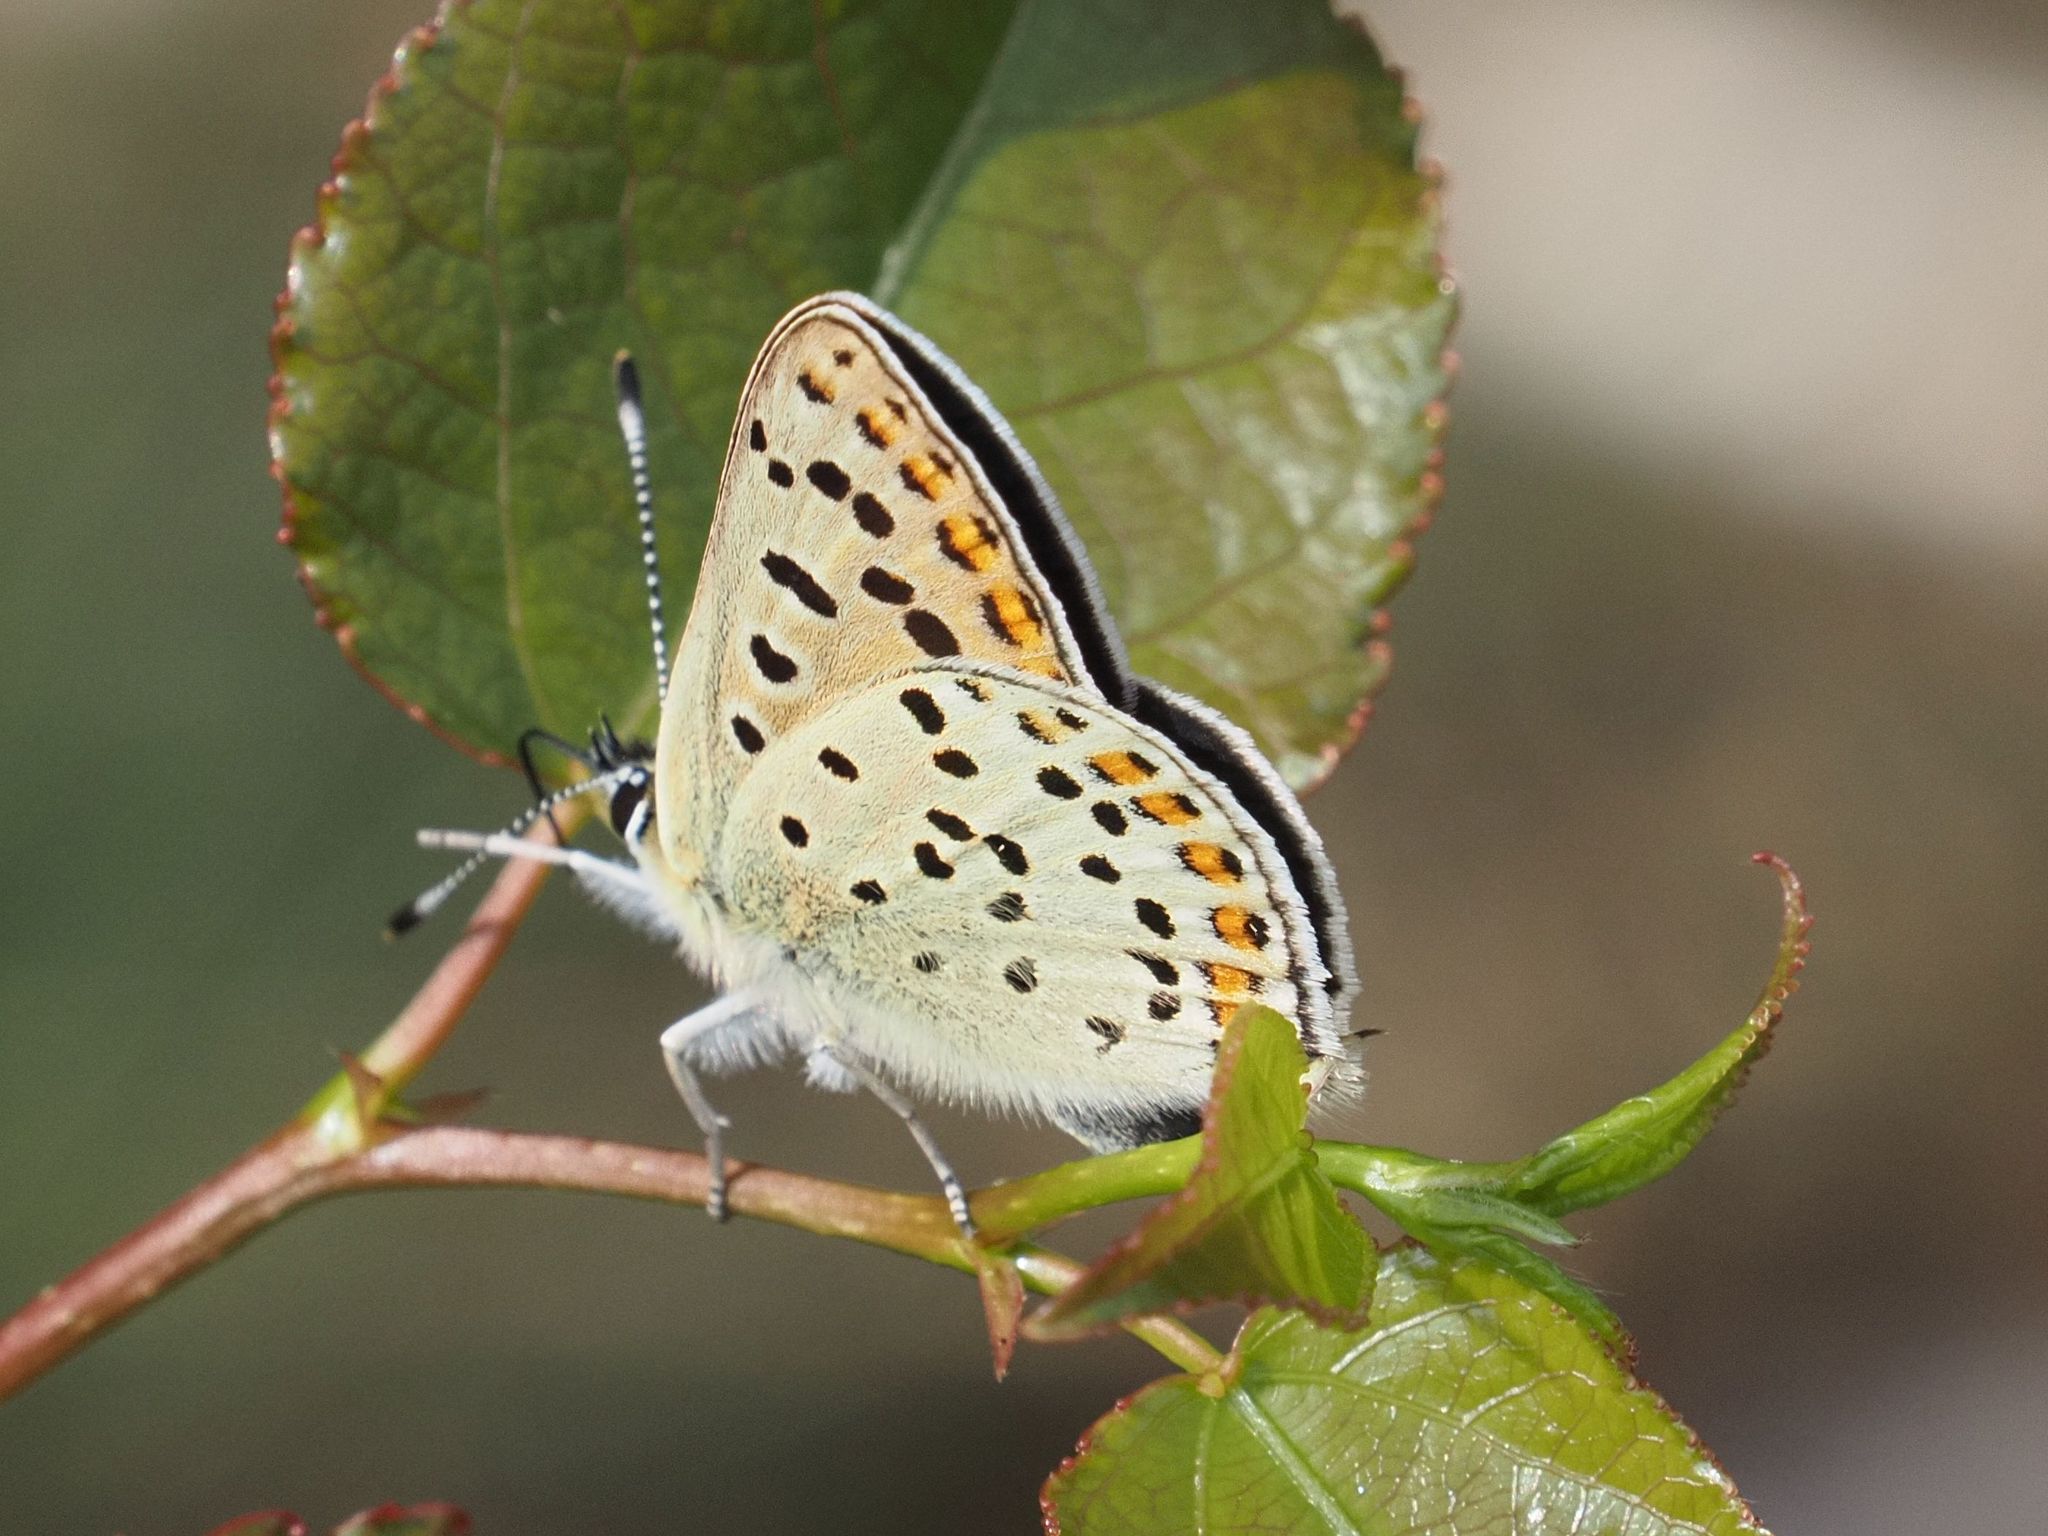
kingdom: Animalia
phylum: Arthropoda
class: Insecta
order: Lepidoptera
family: Lycaenidae
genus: Loweia
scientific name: Loweia tityrus
